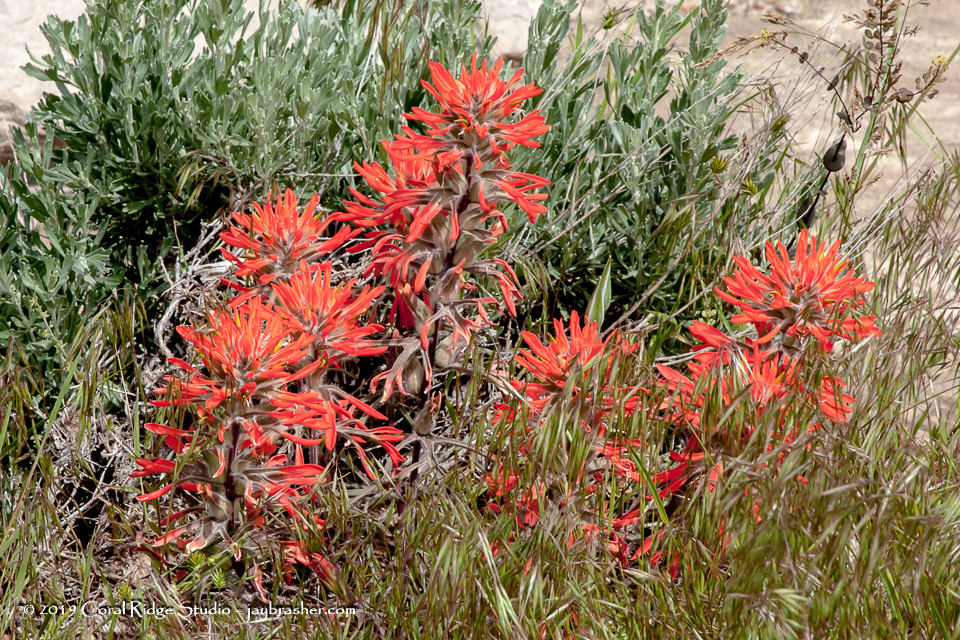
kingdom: Plantae
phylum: Tracheophyta
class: Magnoliopsida
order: Lamiales
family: Orobanchaceae
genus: Castilleja
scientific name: Castilleja chromosa
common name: Desert paintbrush
